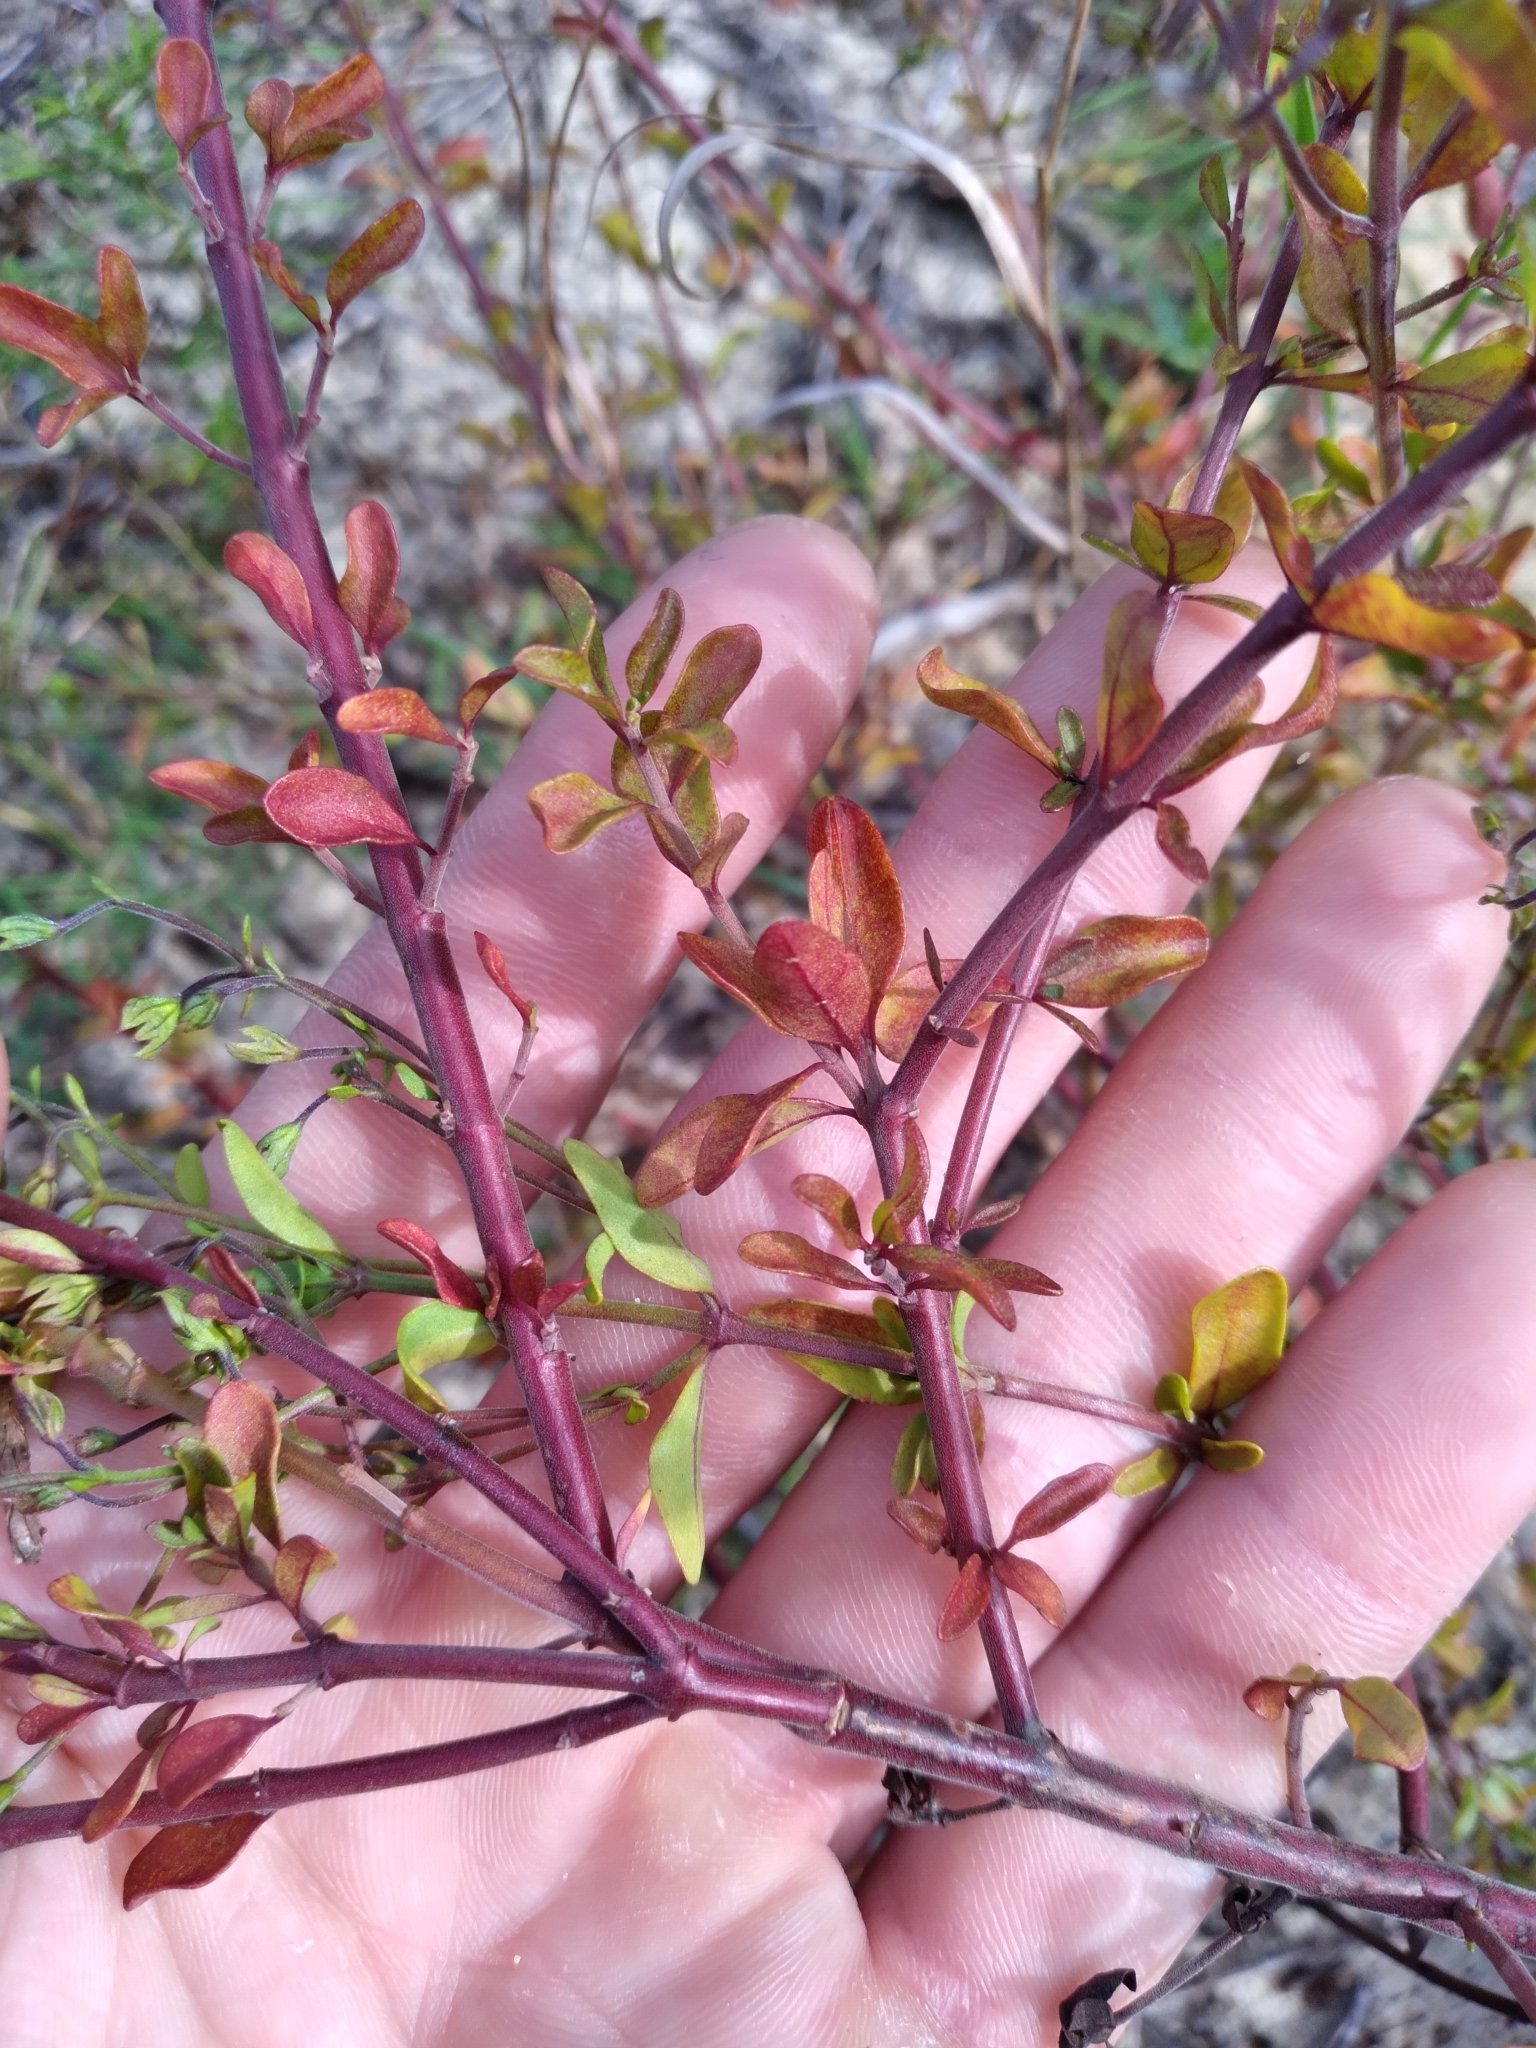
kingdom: Plantae
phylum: Tracheophyta
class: Magnoliopsida
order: Lamiales
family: Lamiaceae
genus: Trichostema
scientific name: Trichostema bridgesii-orzellii
